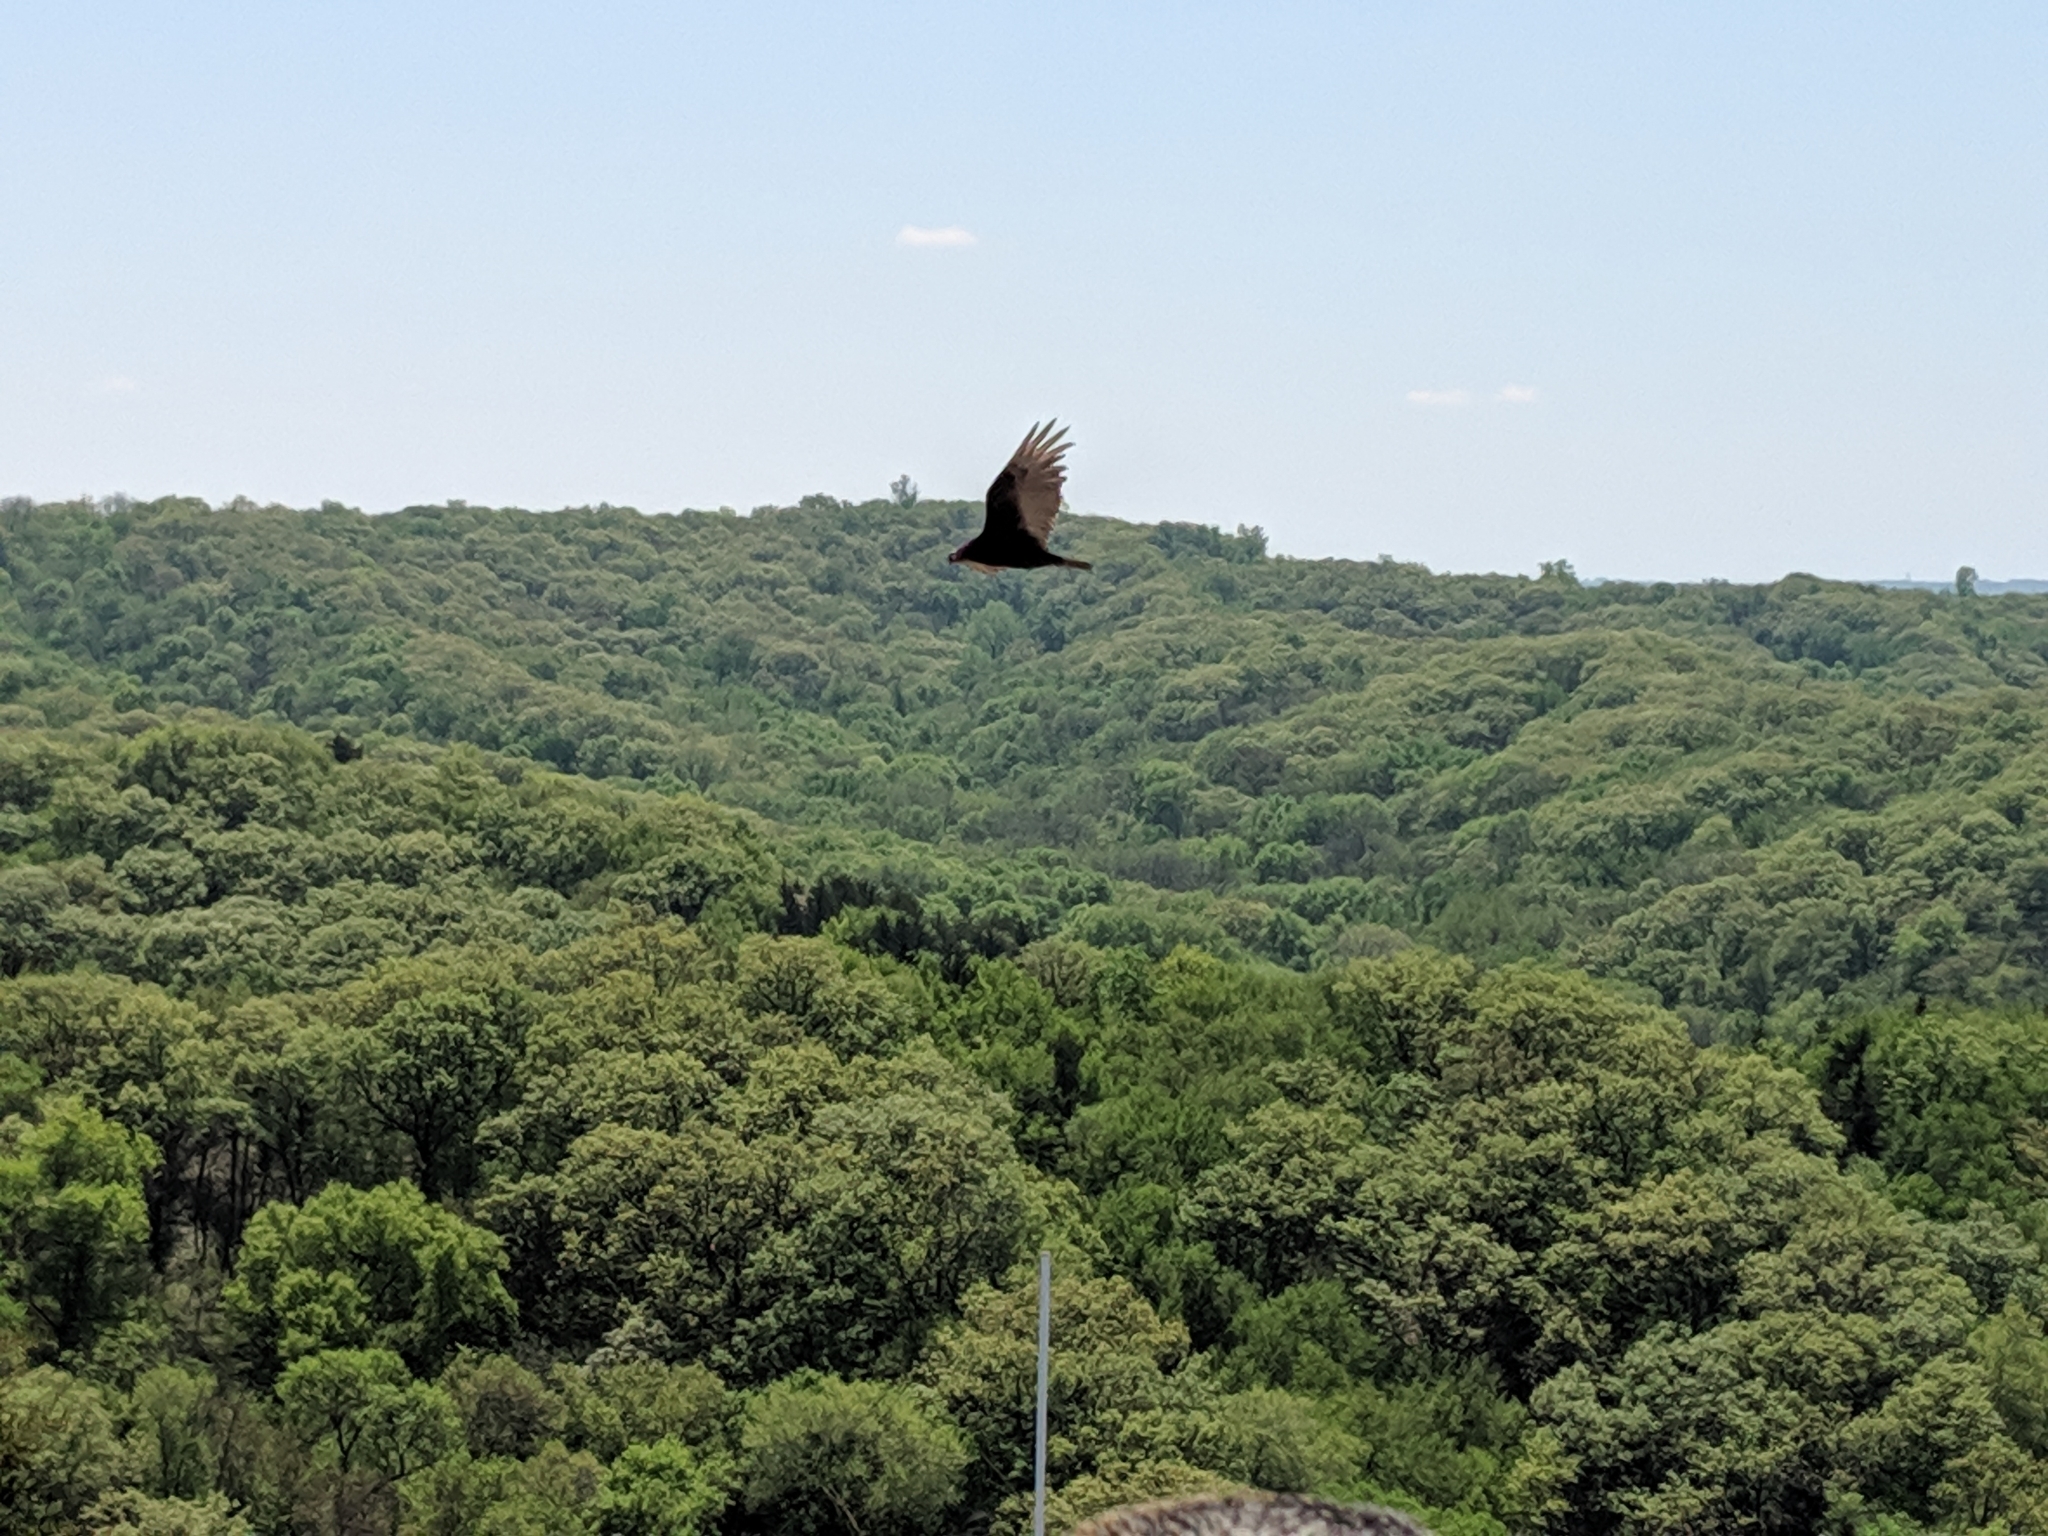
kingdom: Animalia
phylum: Chordata
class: Aves
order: Accipitriformes
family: Cathartidae
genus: Cathartes
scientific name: Cathartes aura
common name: Turkey vulture
